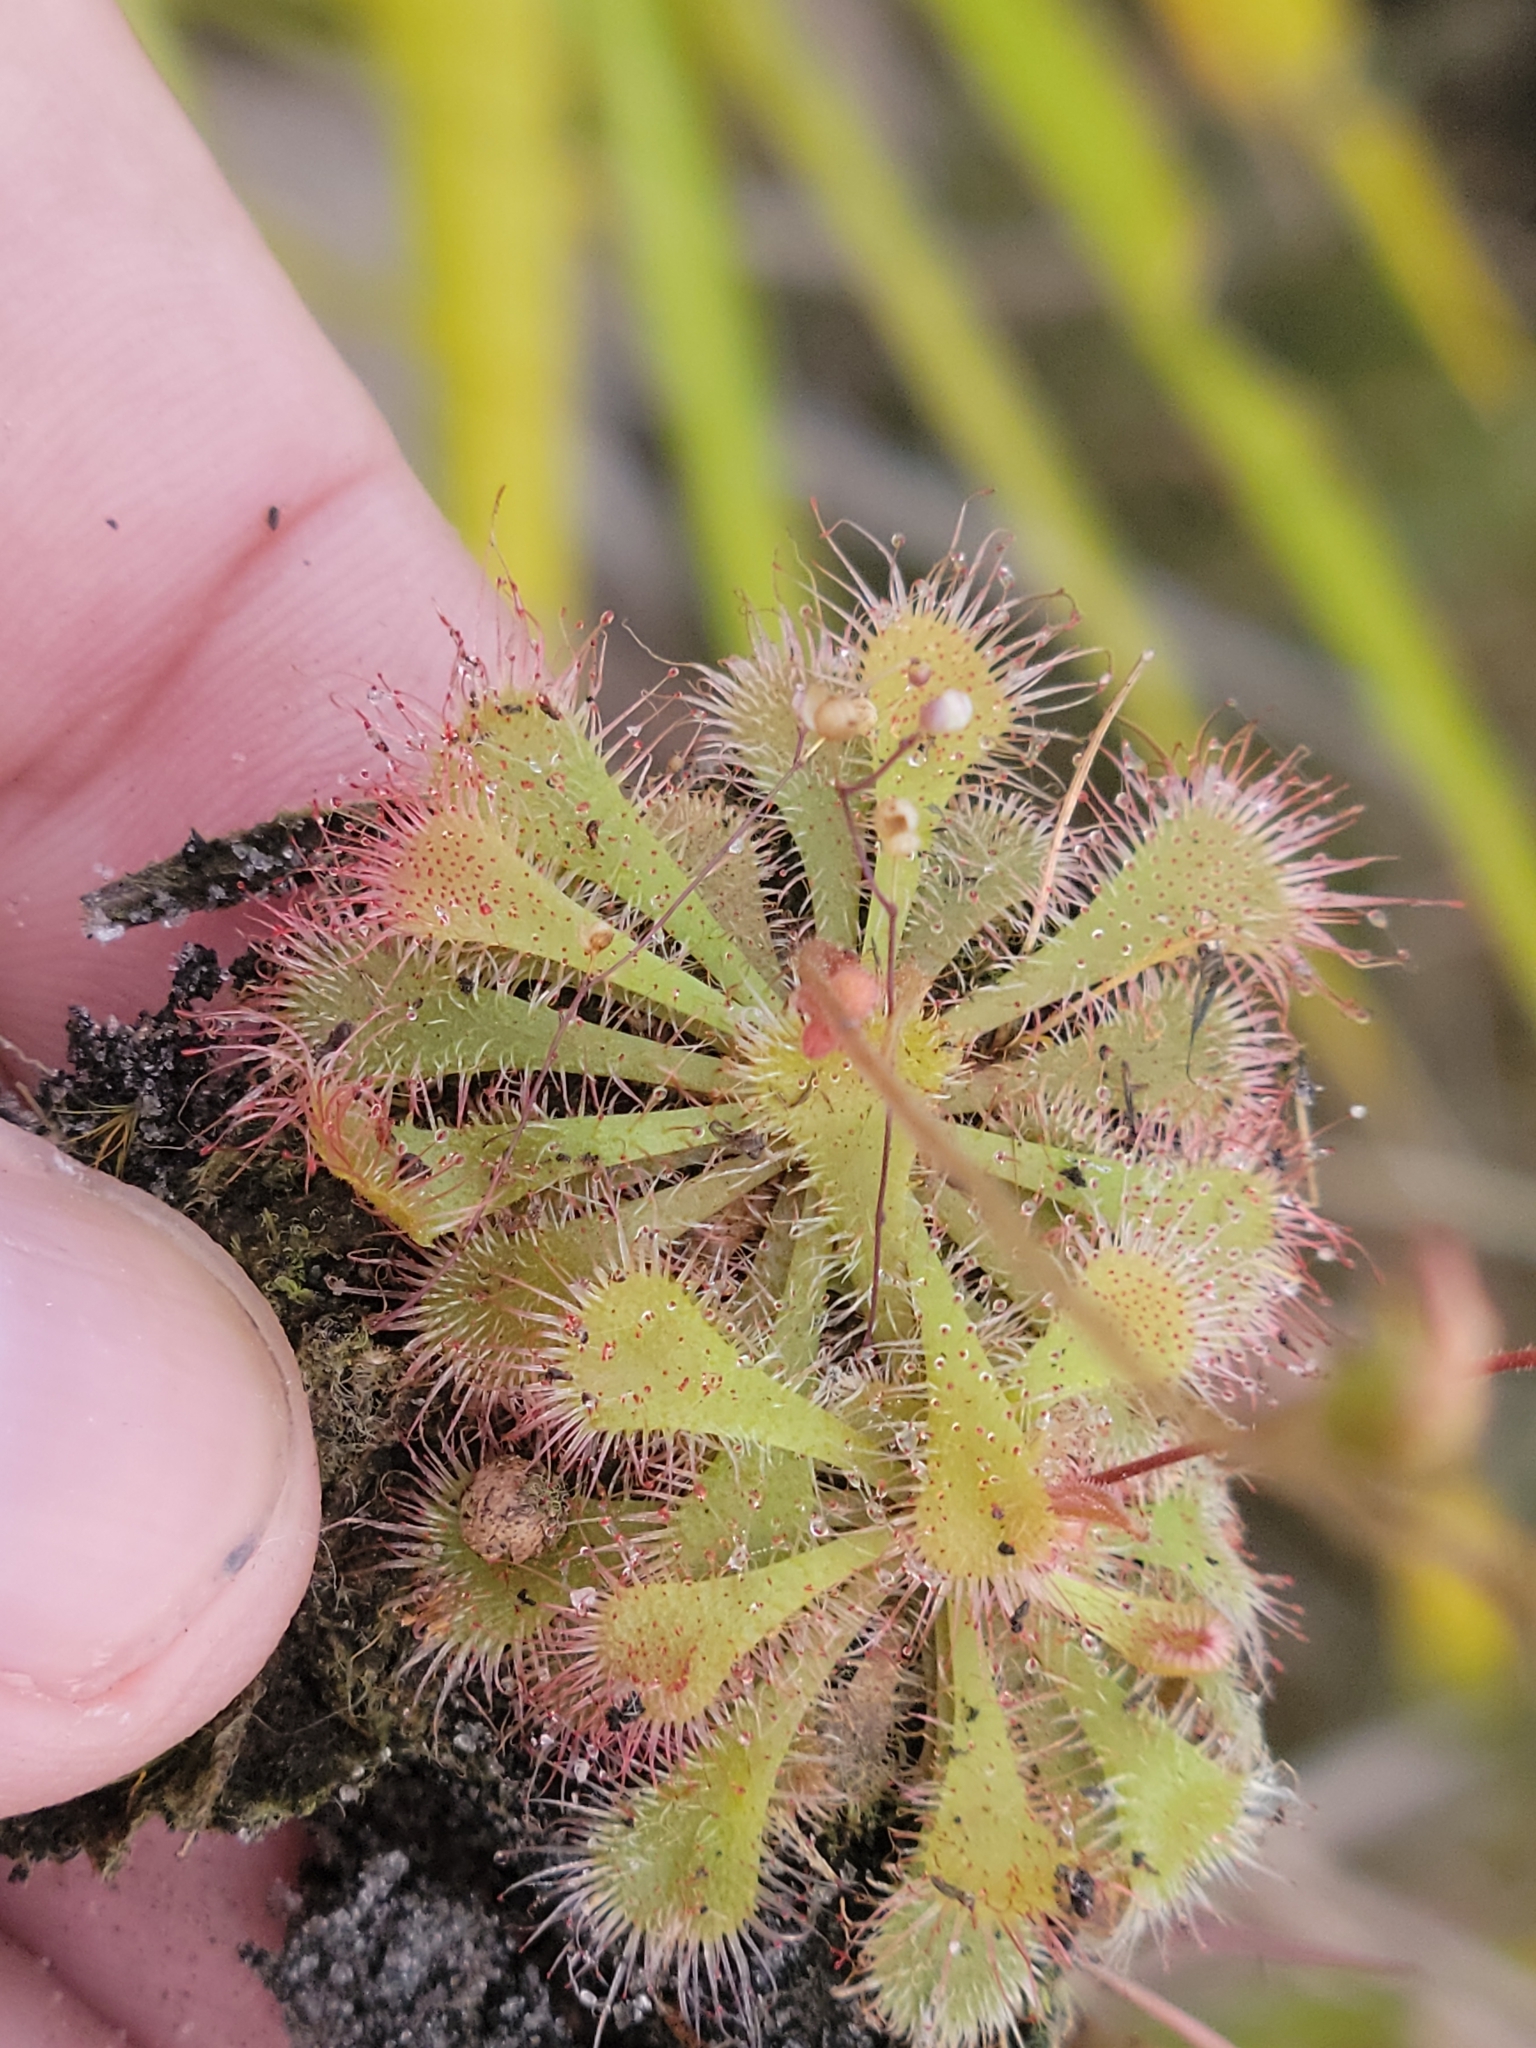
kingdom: Plantae
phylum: Tracheophyta
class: Magnoliopsida
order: Caryophyllales
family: Droseraceae
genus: Drosera
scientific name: Drosera brevifolia
